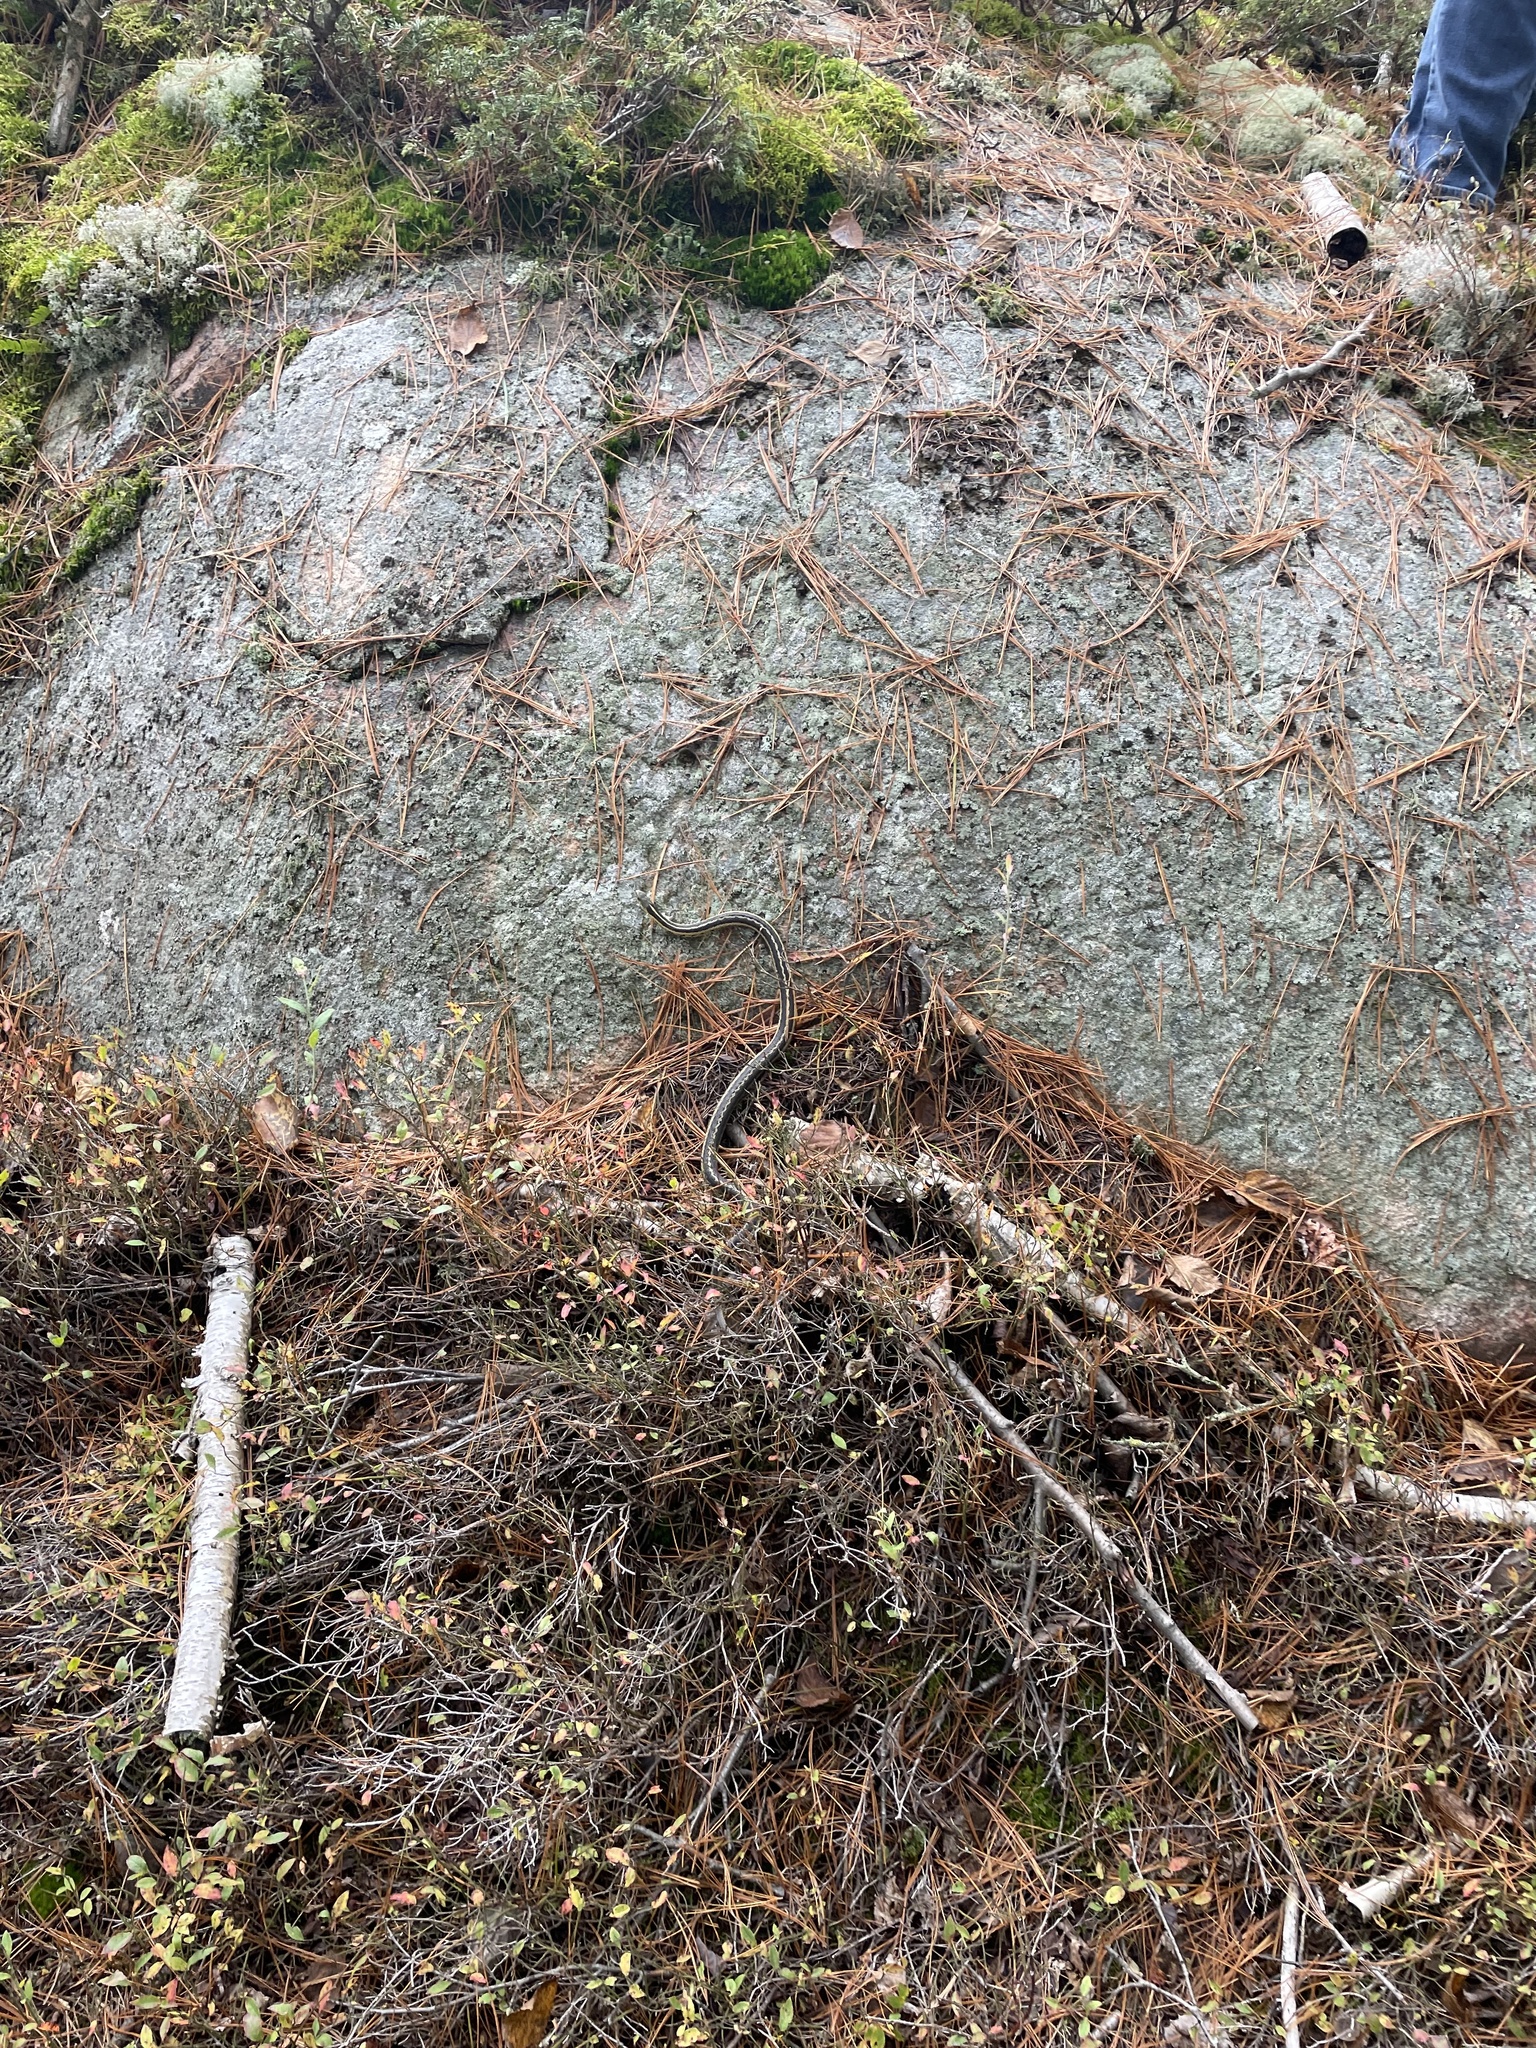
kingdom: Animalia
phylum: Chordata
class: Squamata
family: Colubridae
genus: Thamnophis
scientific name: Thamnophis sirtalis
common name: Common garter snake
